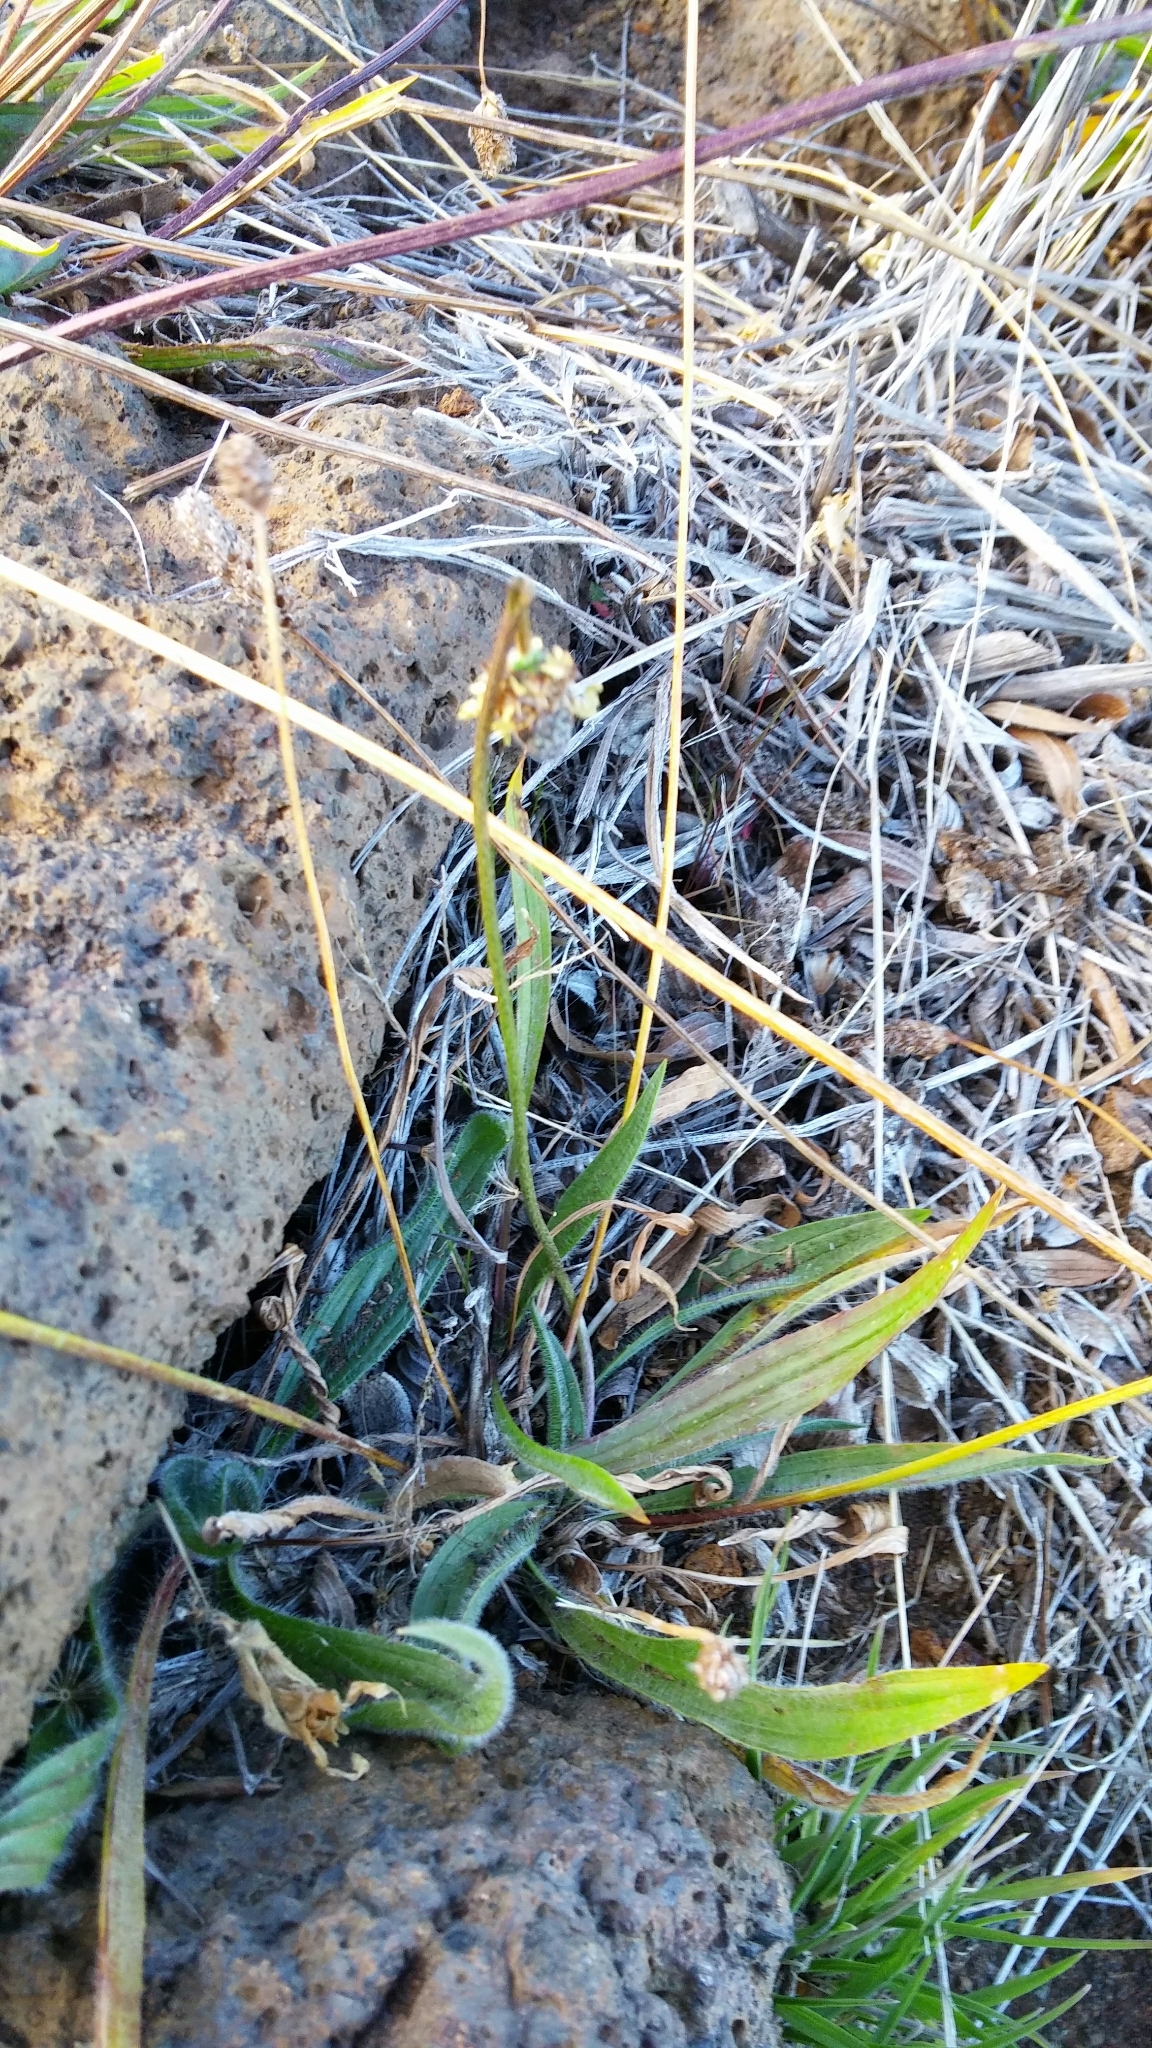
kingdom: Plantae
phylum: Tracheophyta
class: Magnoliopsida
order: Lamiales
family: Plantaginaceae
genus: Plantago
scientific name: Plantago lanceolata
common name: Ribwort plantain
